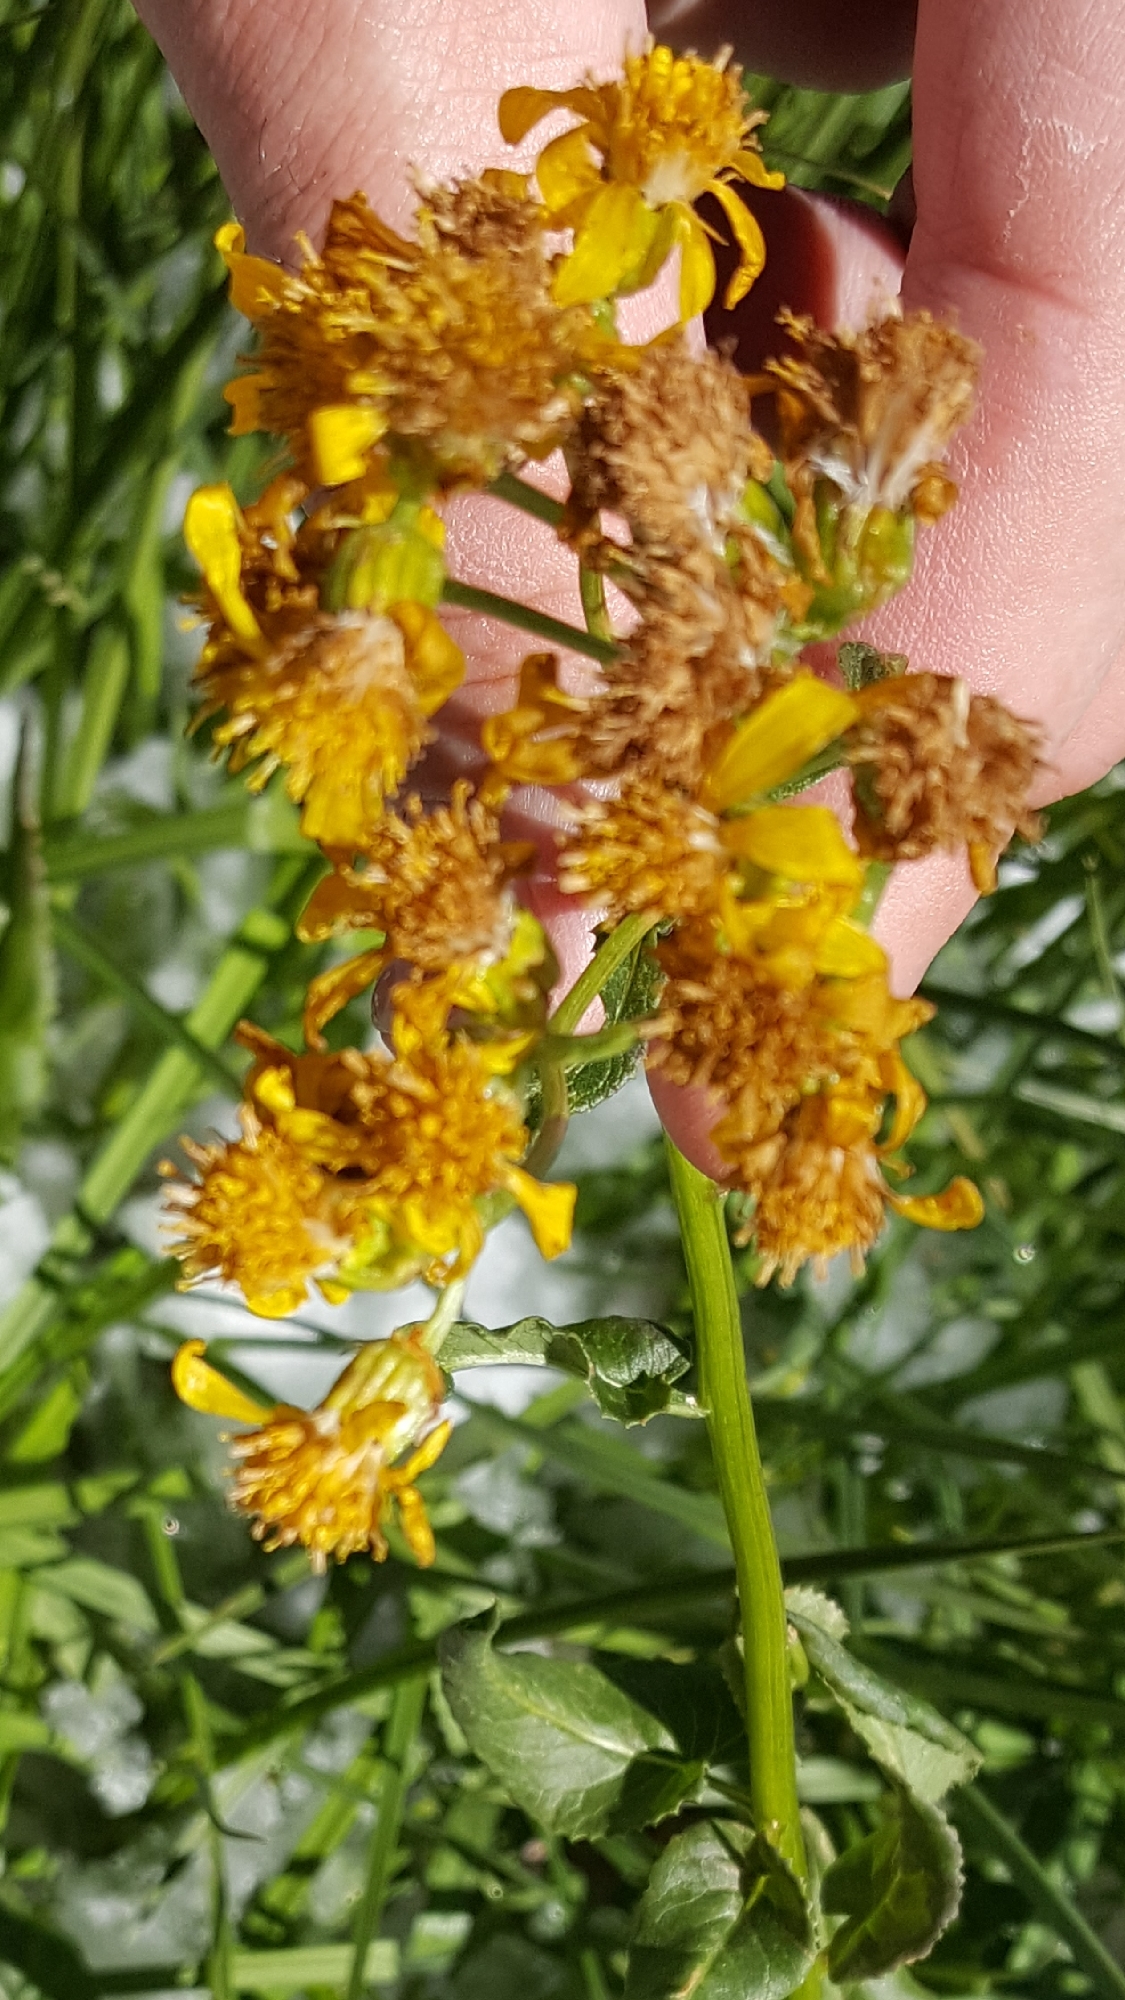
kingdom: Plantae
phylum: Tracheophyta
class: Magnoliopsida
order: Asterales
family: Asteraceae
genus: Senecio
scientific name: Senecio triangularis
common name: Arrowleaf butterweed
